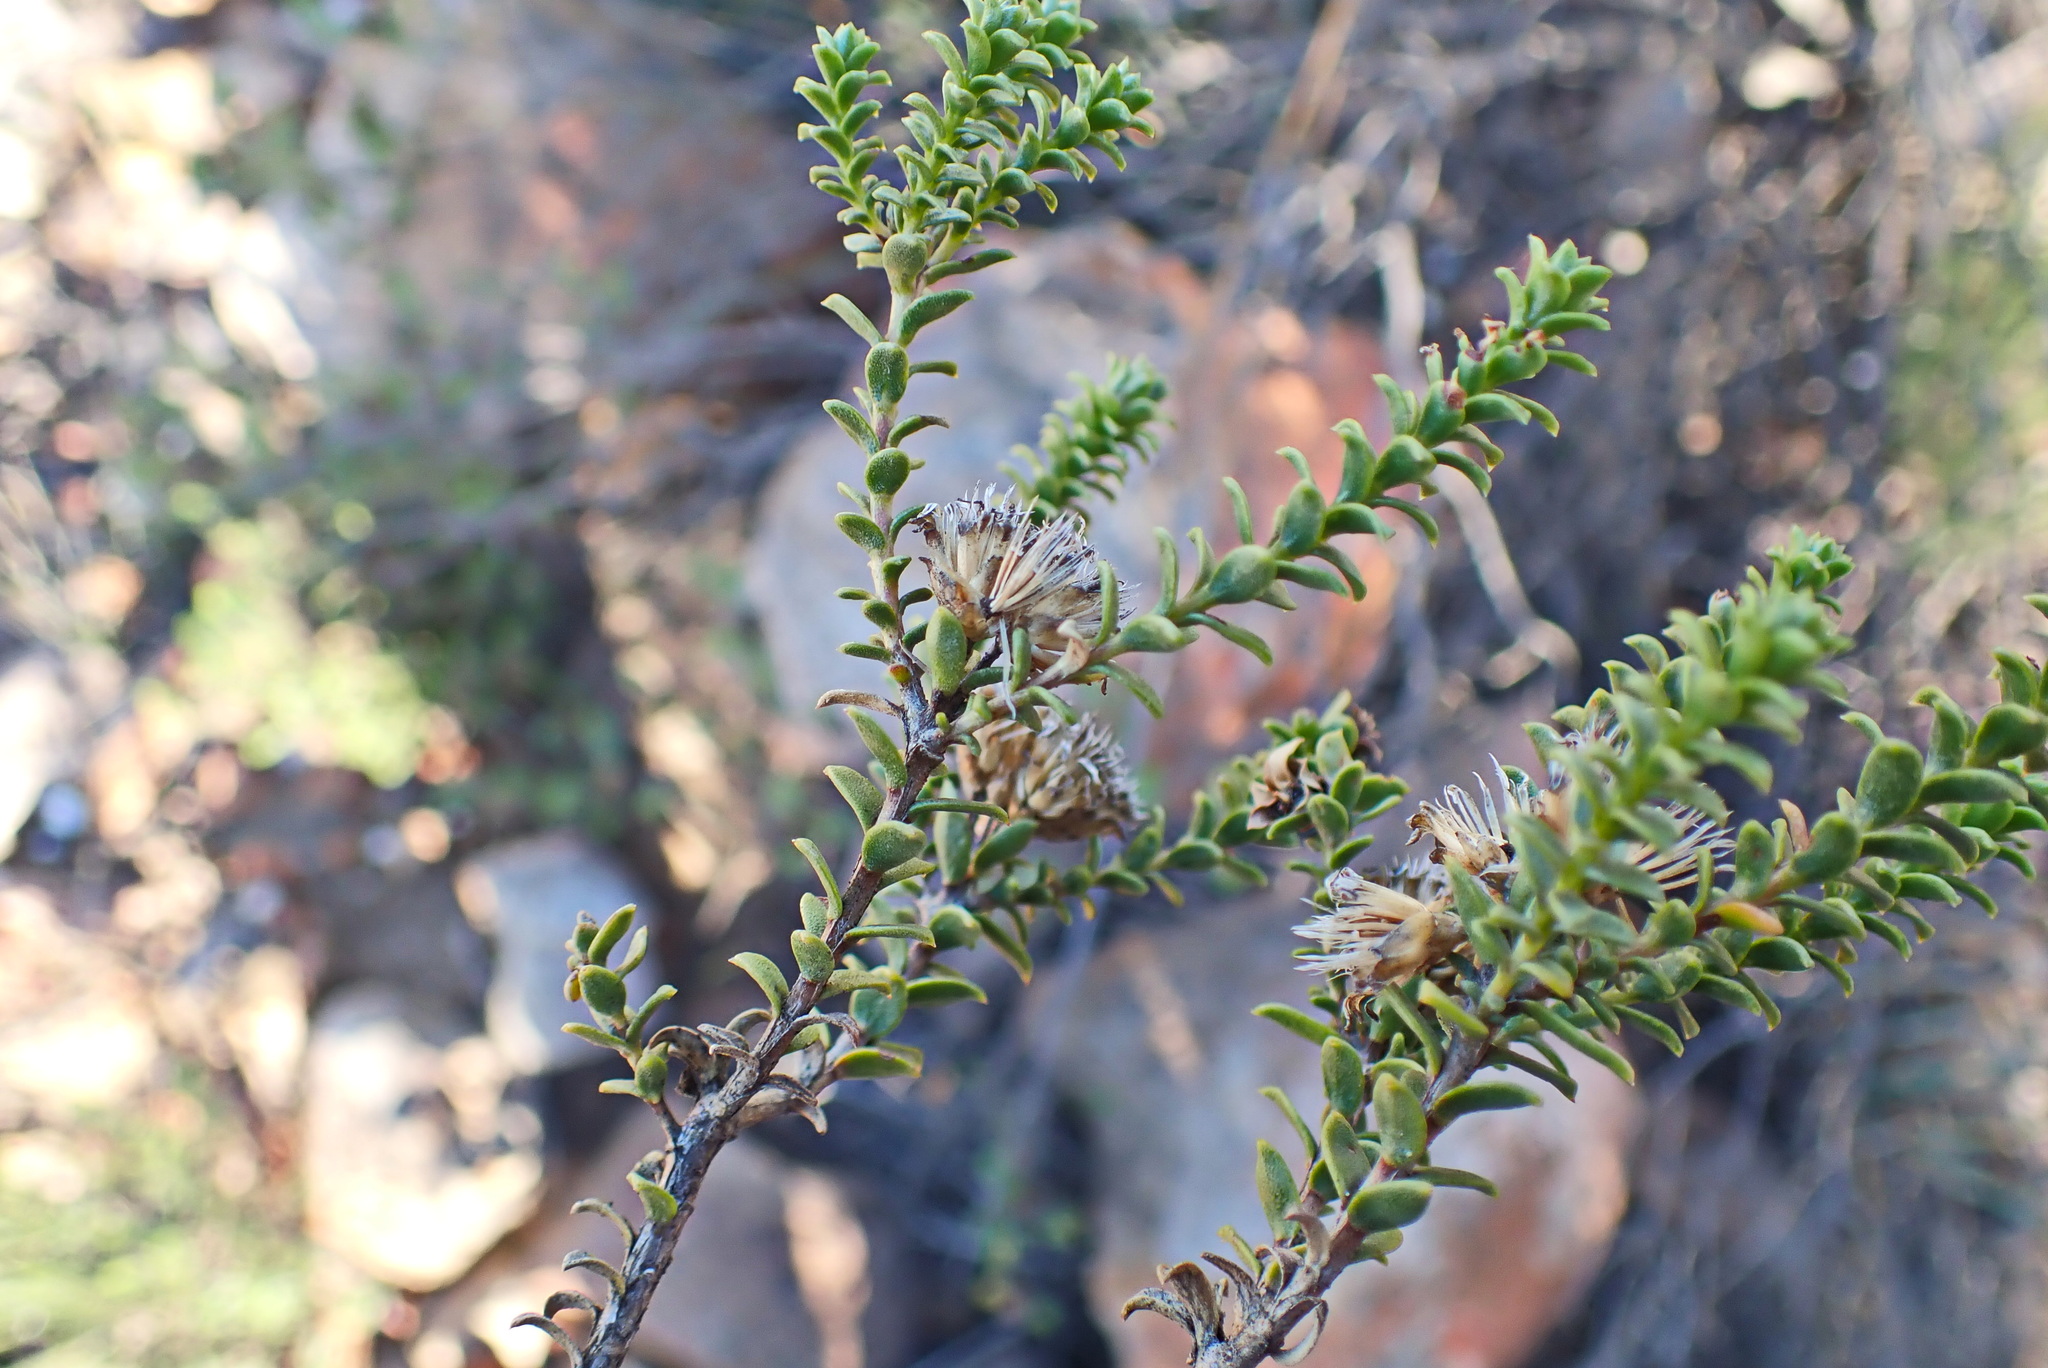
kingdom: Plantae
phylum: Tracheophyta
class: Magnoliopsida
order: Asterales
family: Asteraceae
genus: Oedera
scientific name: Oedera squarrosa
